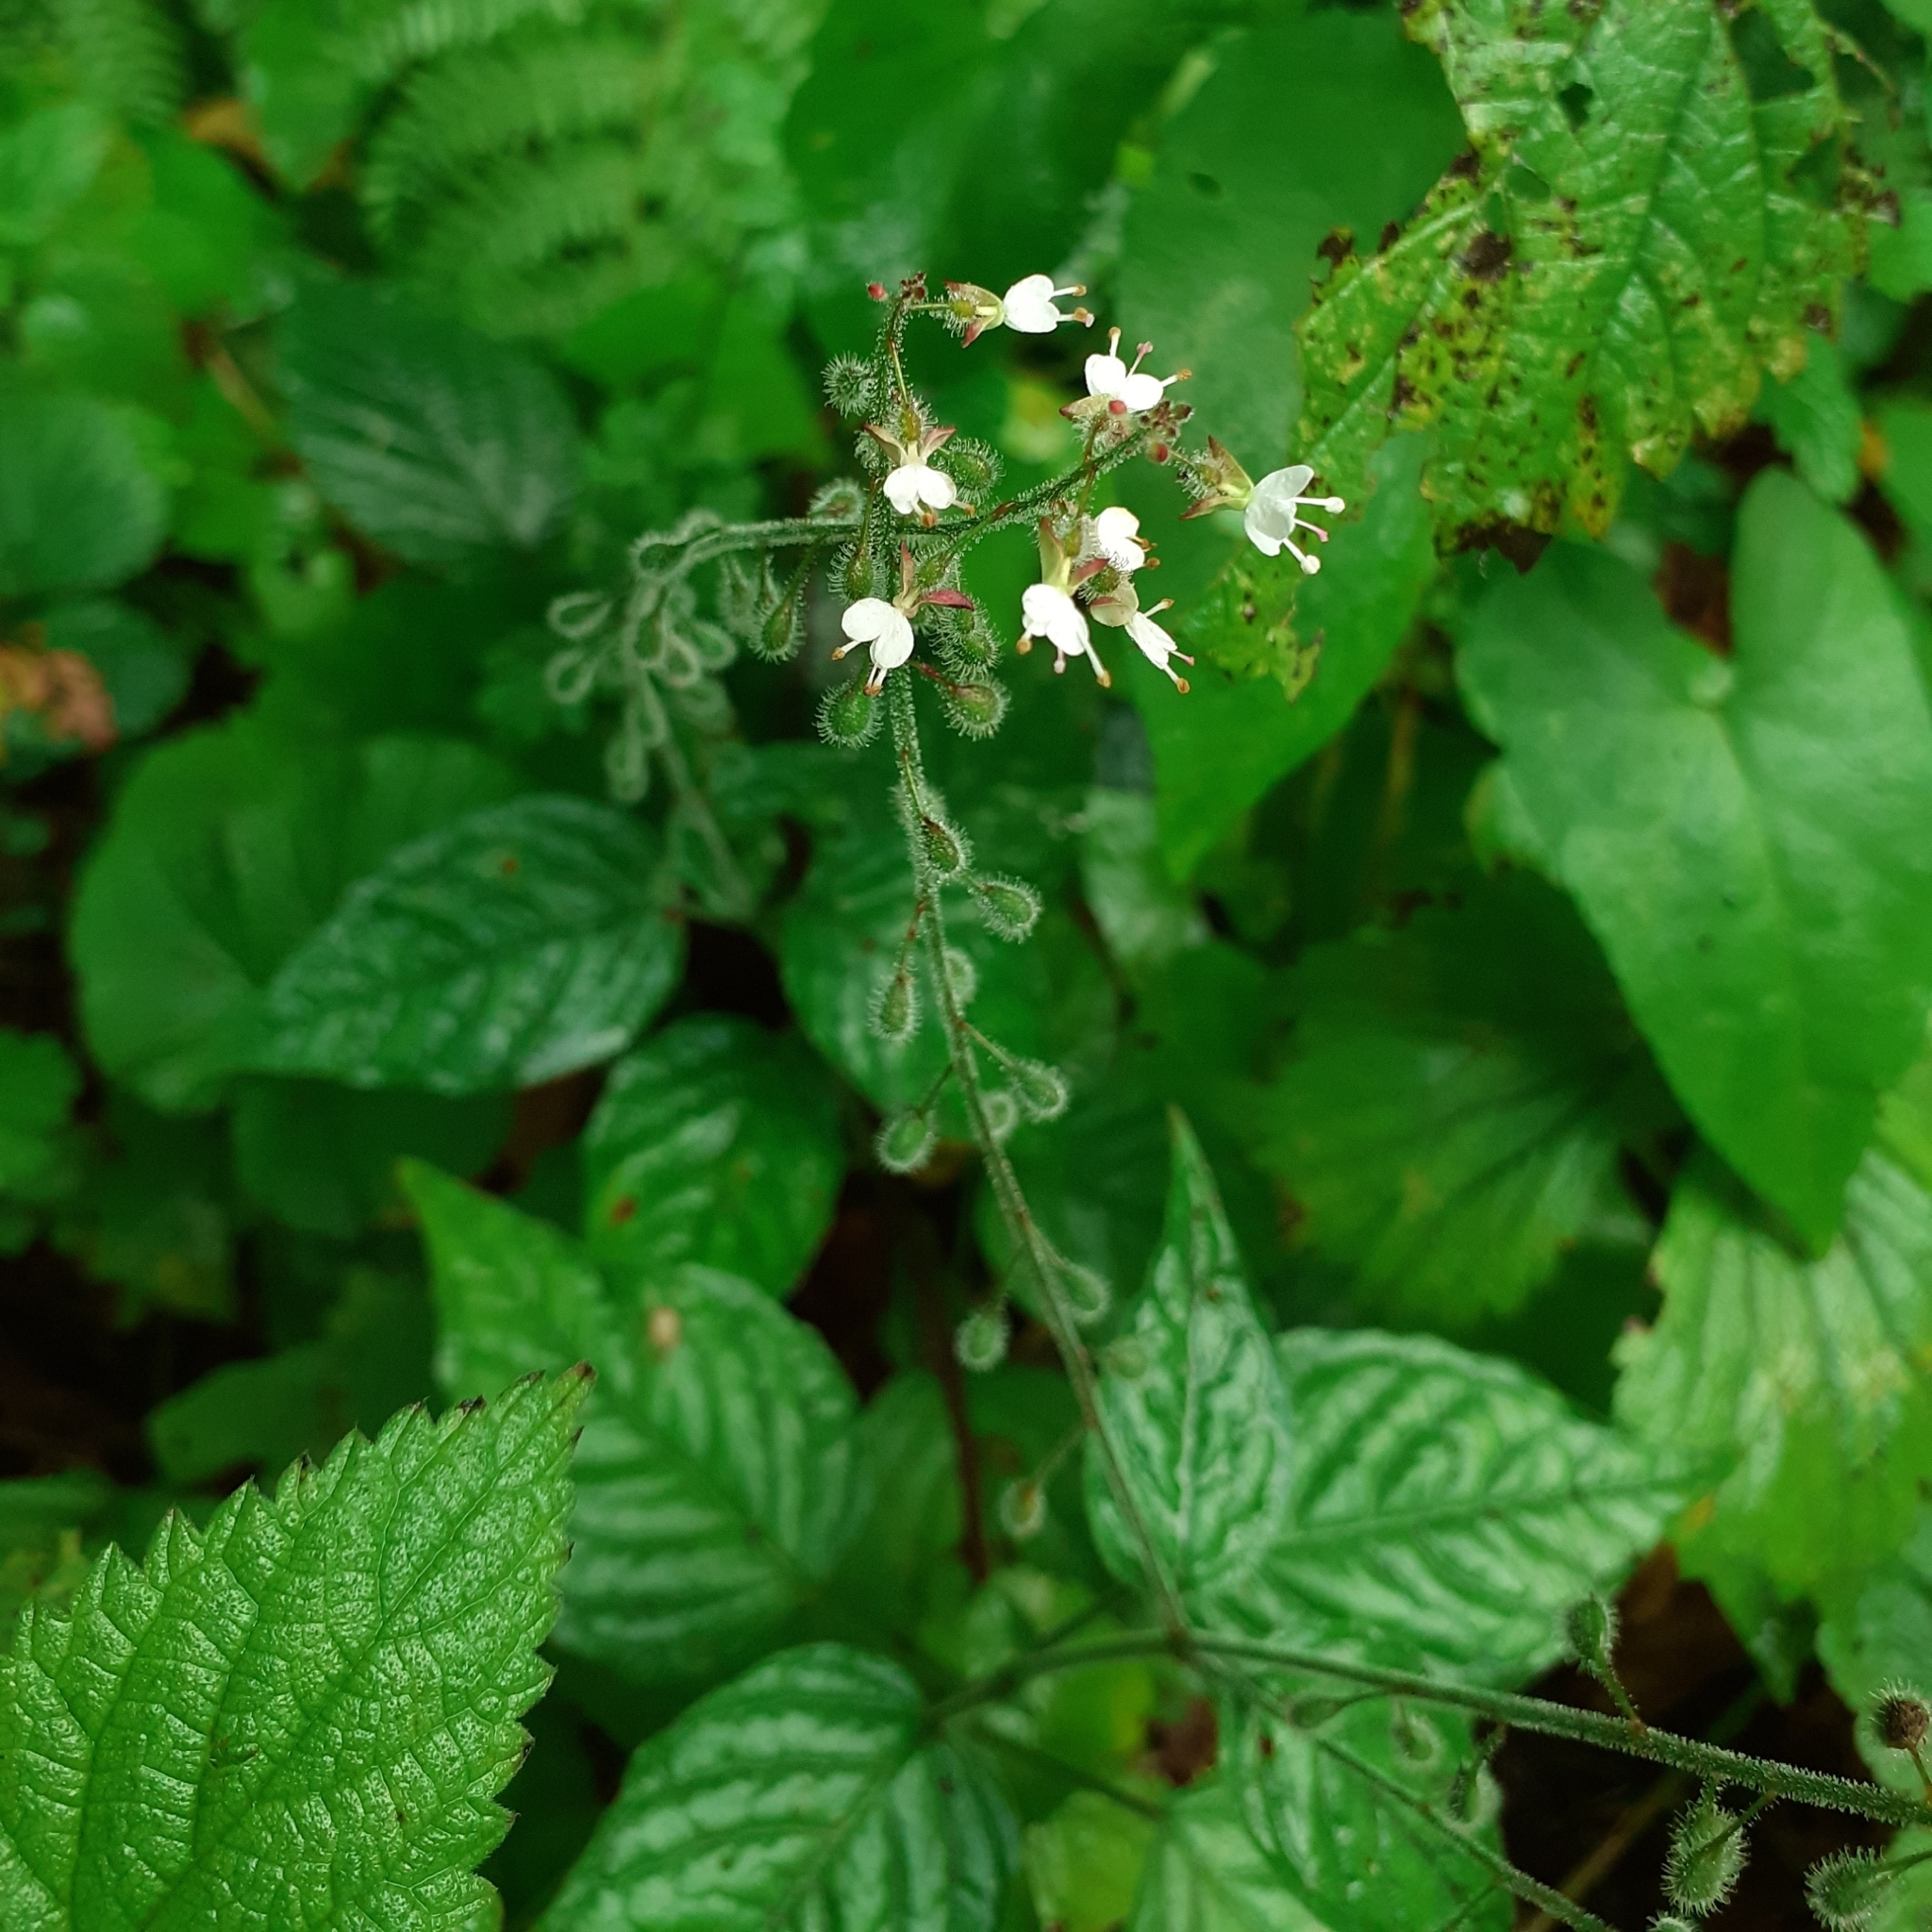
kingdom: Plantae
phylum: Tracheophyta
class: Magnoliopsida
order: Myrtales
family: Onagraceae
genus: Circaea
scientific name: Circaea lutetiana
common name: Enchanter's-nightshade
